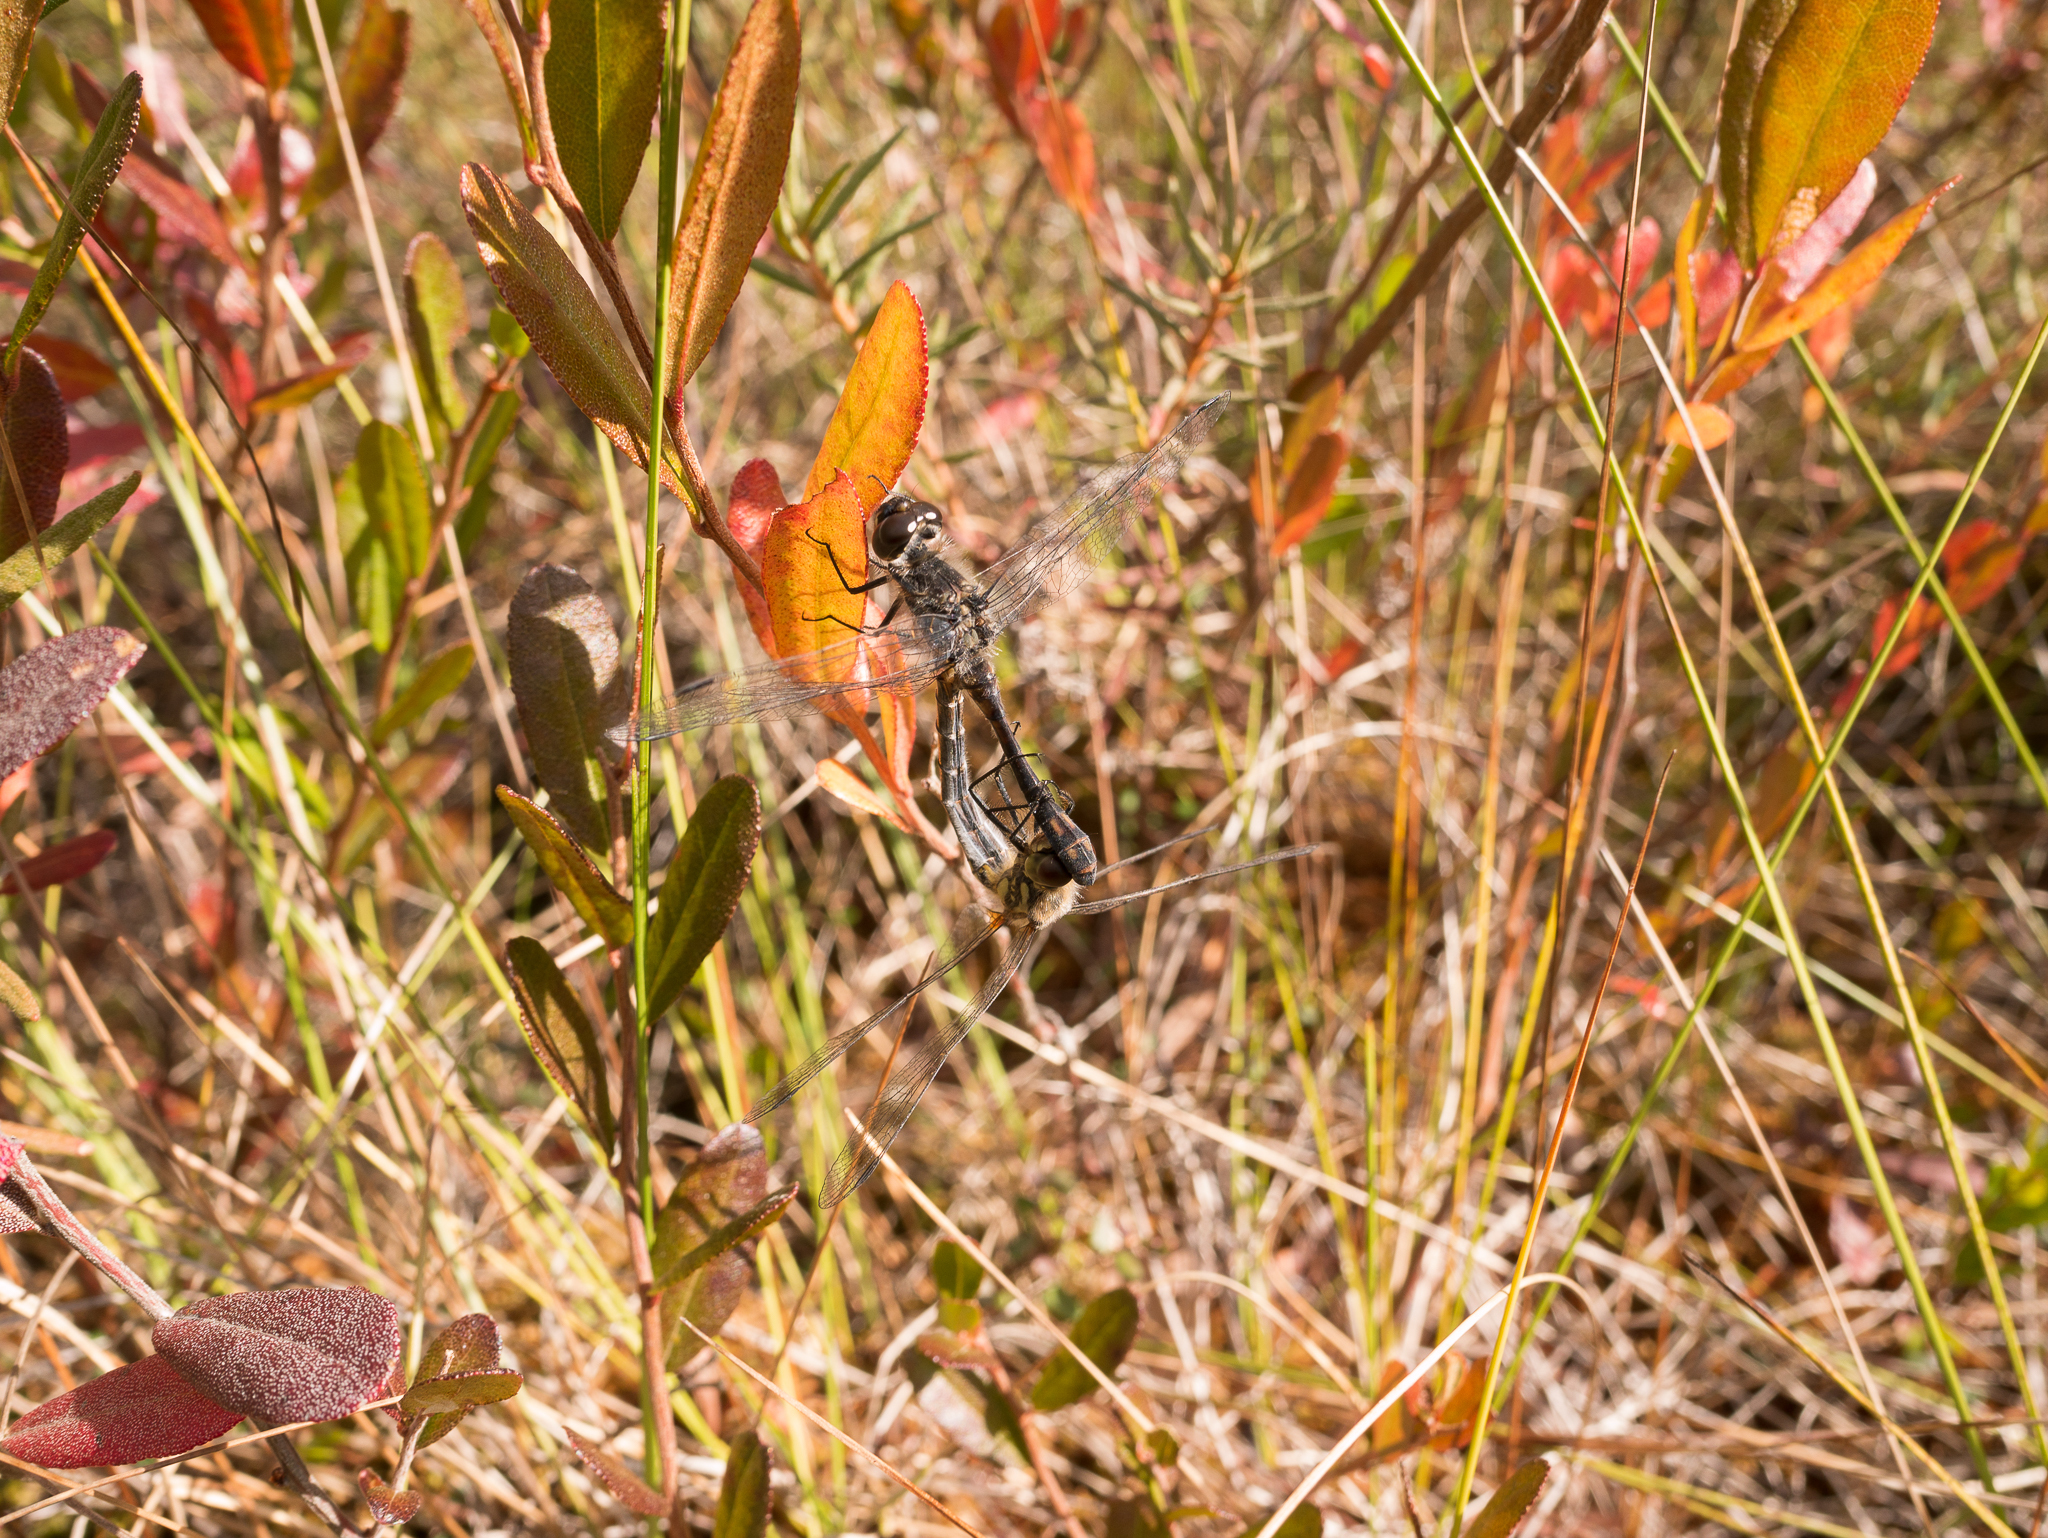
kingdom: Animalia
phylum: Arthropoda
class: Insecta
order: Odonata
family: Libellulidae
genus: Sympetrum
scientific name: Sympetrum danae
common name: Black darter
